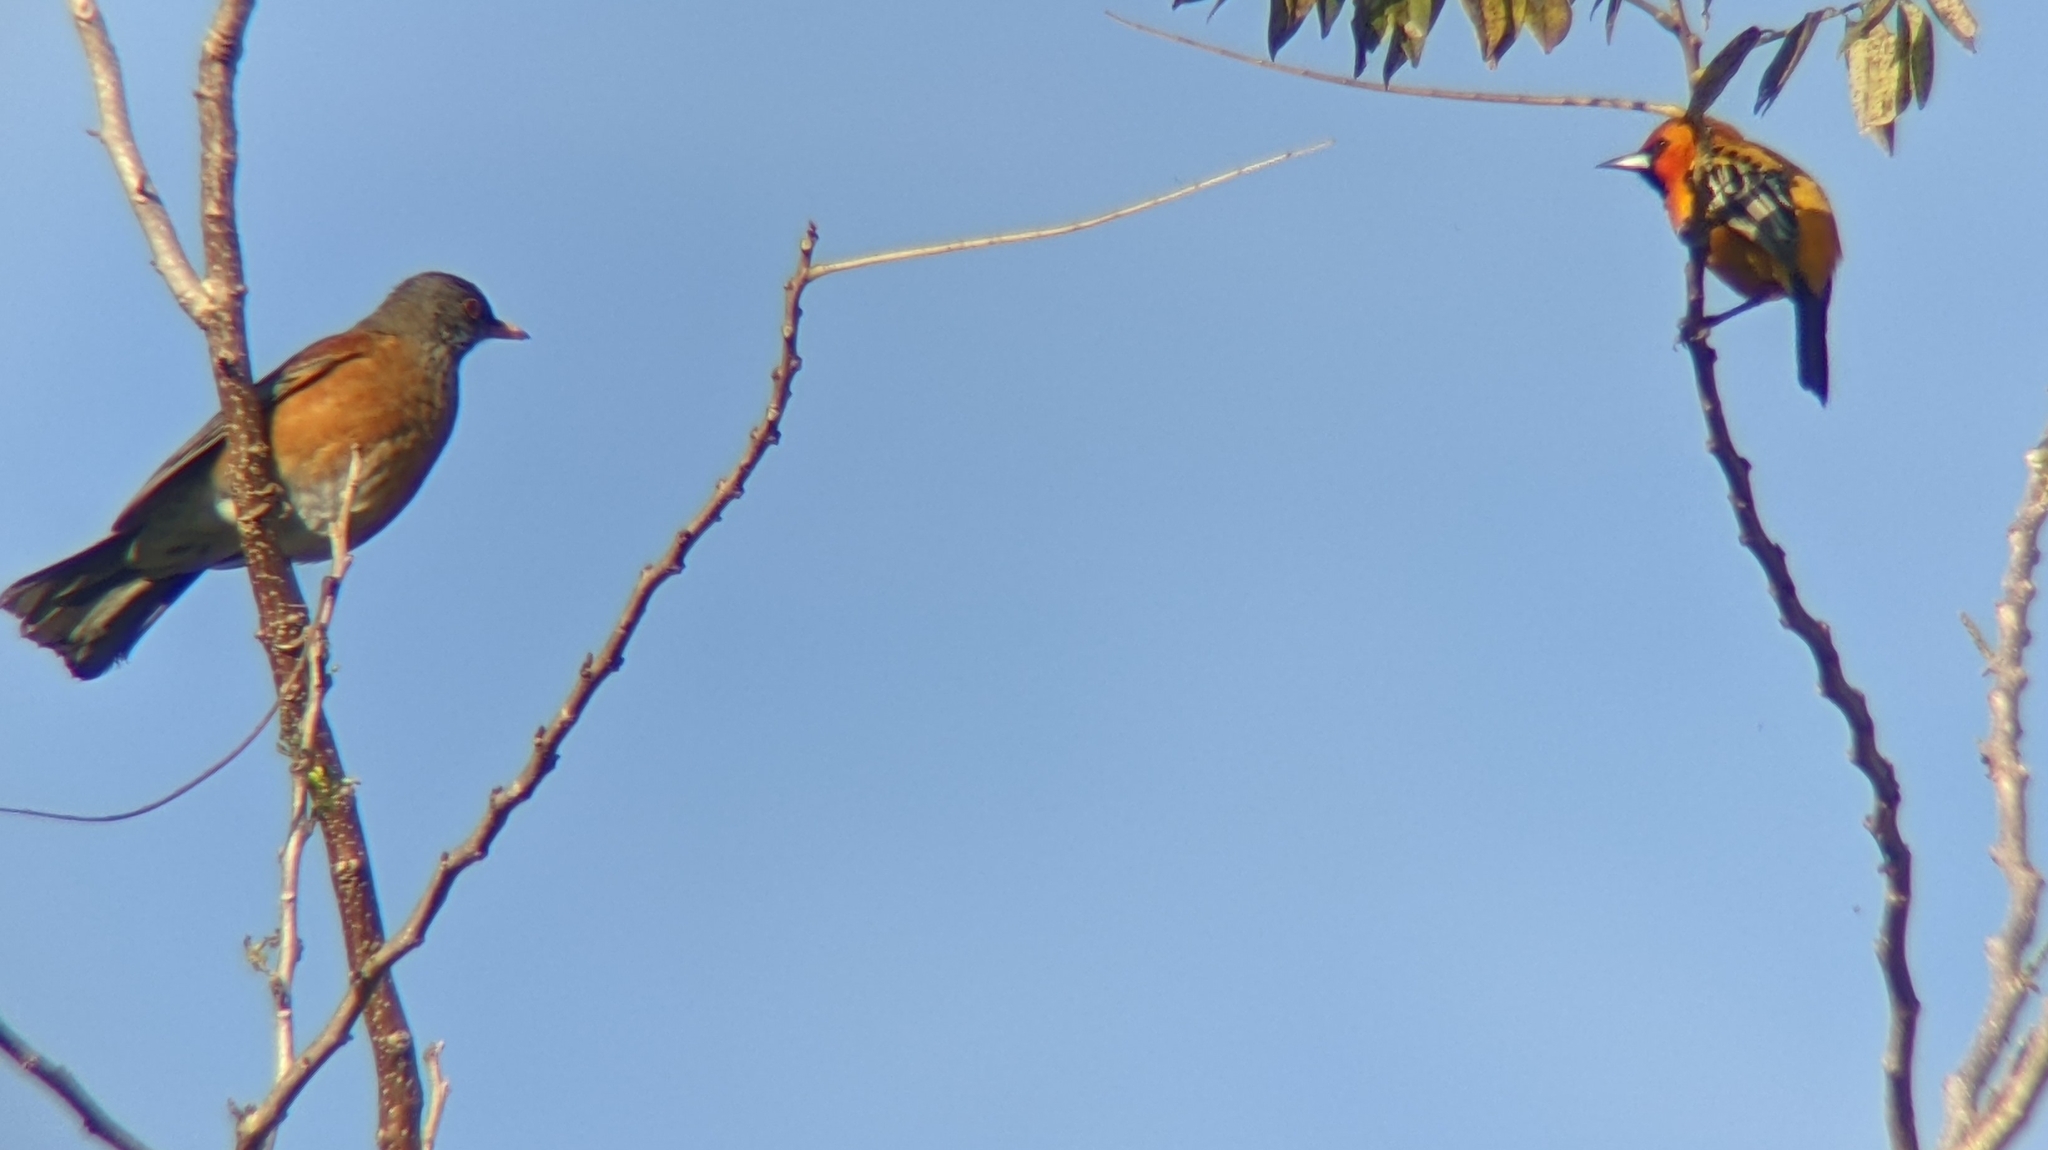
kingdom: Animalia
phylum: Chordata
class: Aves
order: Passeriformes
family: Turdidae
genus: Turdus
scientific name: Turdus rufopalliatus
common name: Rufous-backed robin
